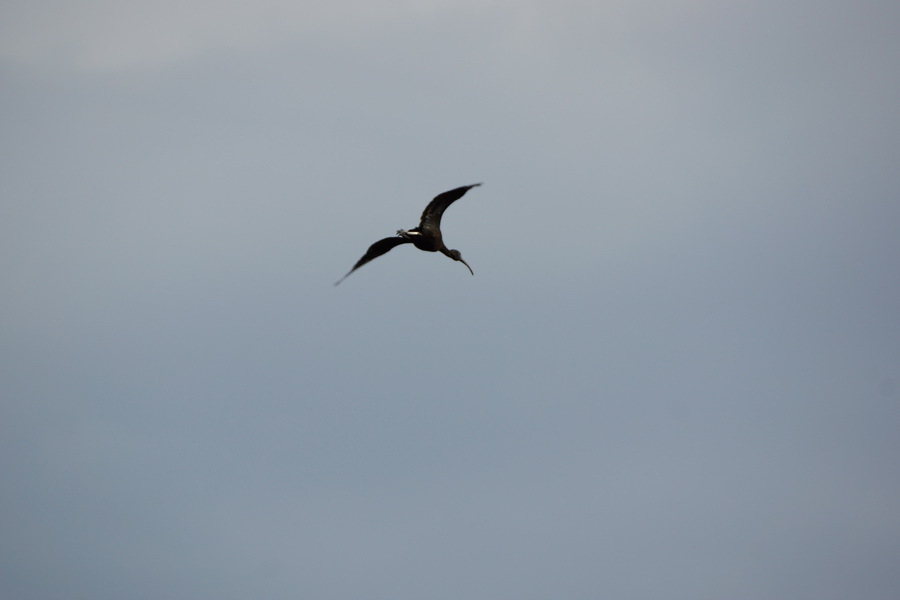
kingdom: Animalia
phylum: Chordata
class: Aves
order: Pelecaniformes
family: Threskiornithidae
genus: Plegadis
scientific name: Plegadis falcinellus
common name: Glossy ibis
